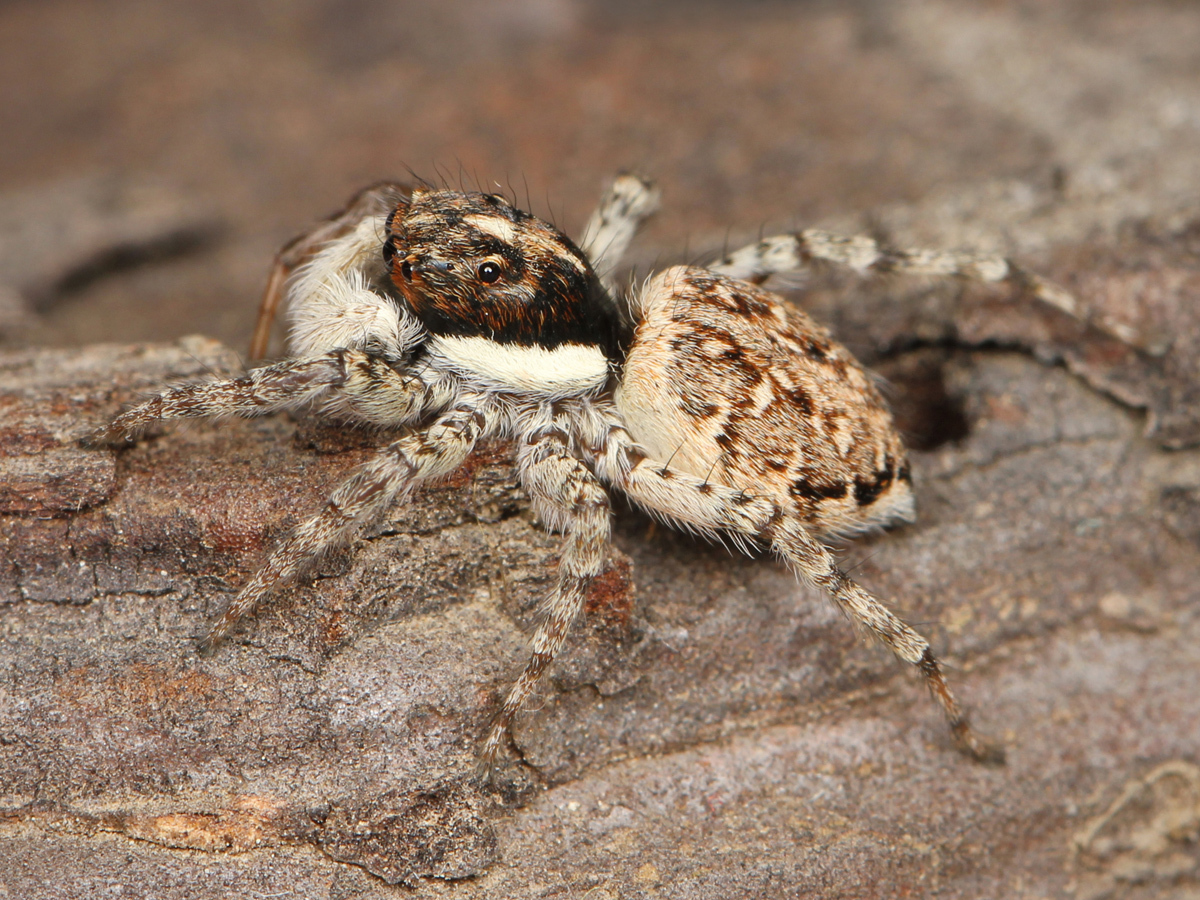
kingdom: Animalia
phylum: Arthropoda
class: Arachnida
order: Araneae
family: Salticidae
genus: Menemerus
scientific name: Menemerus semilimbatus
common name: Jumping spider
